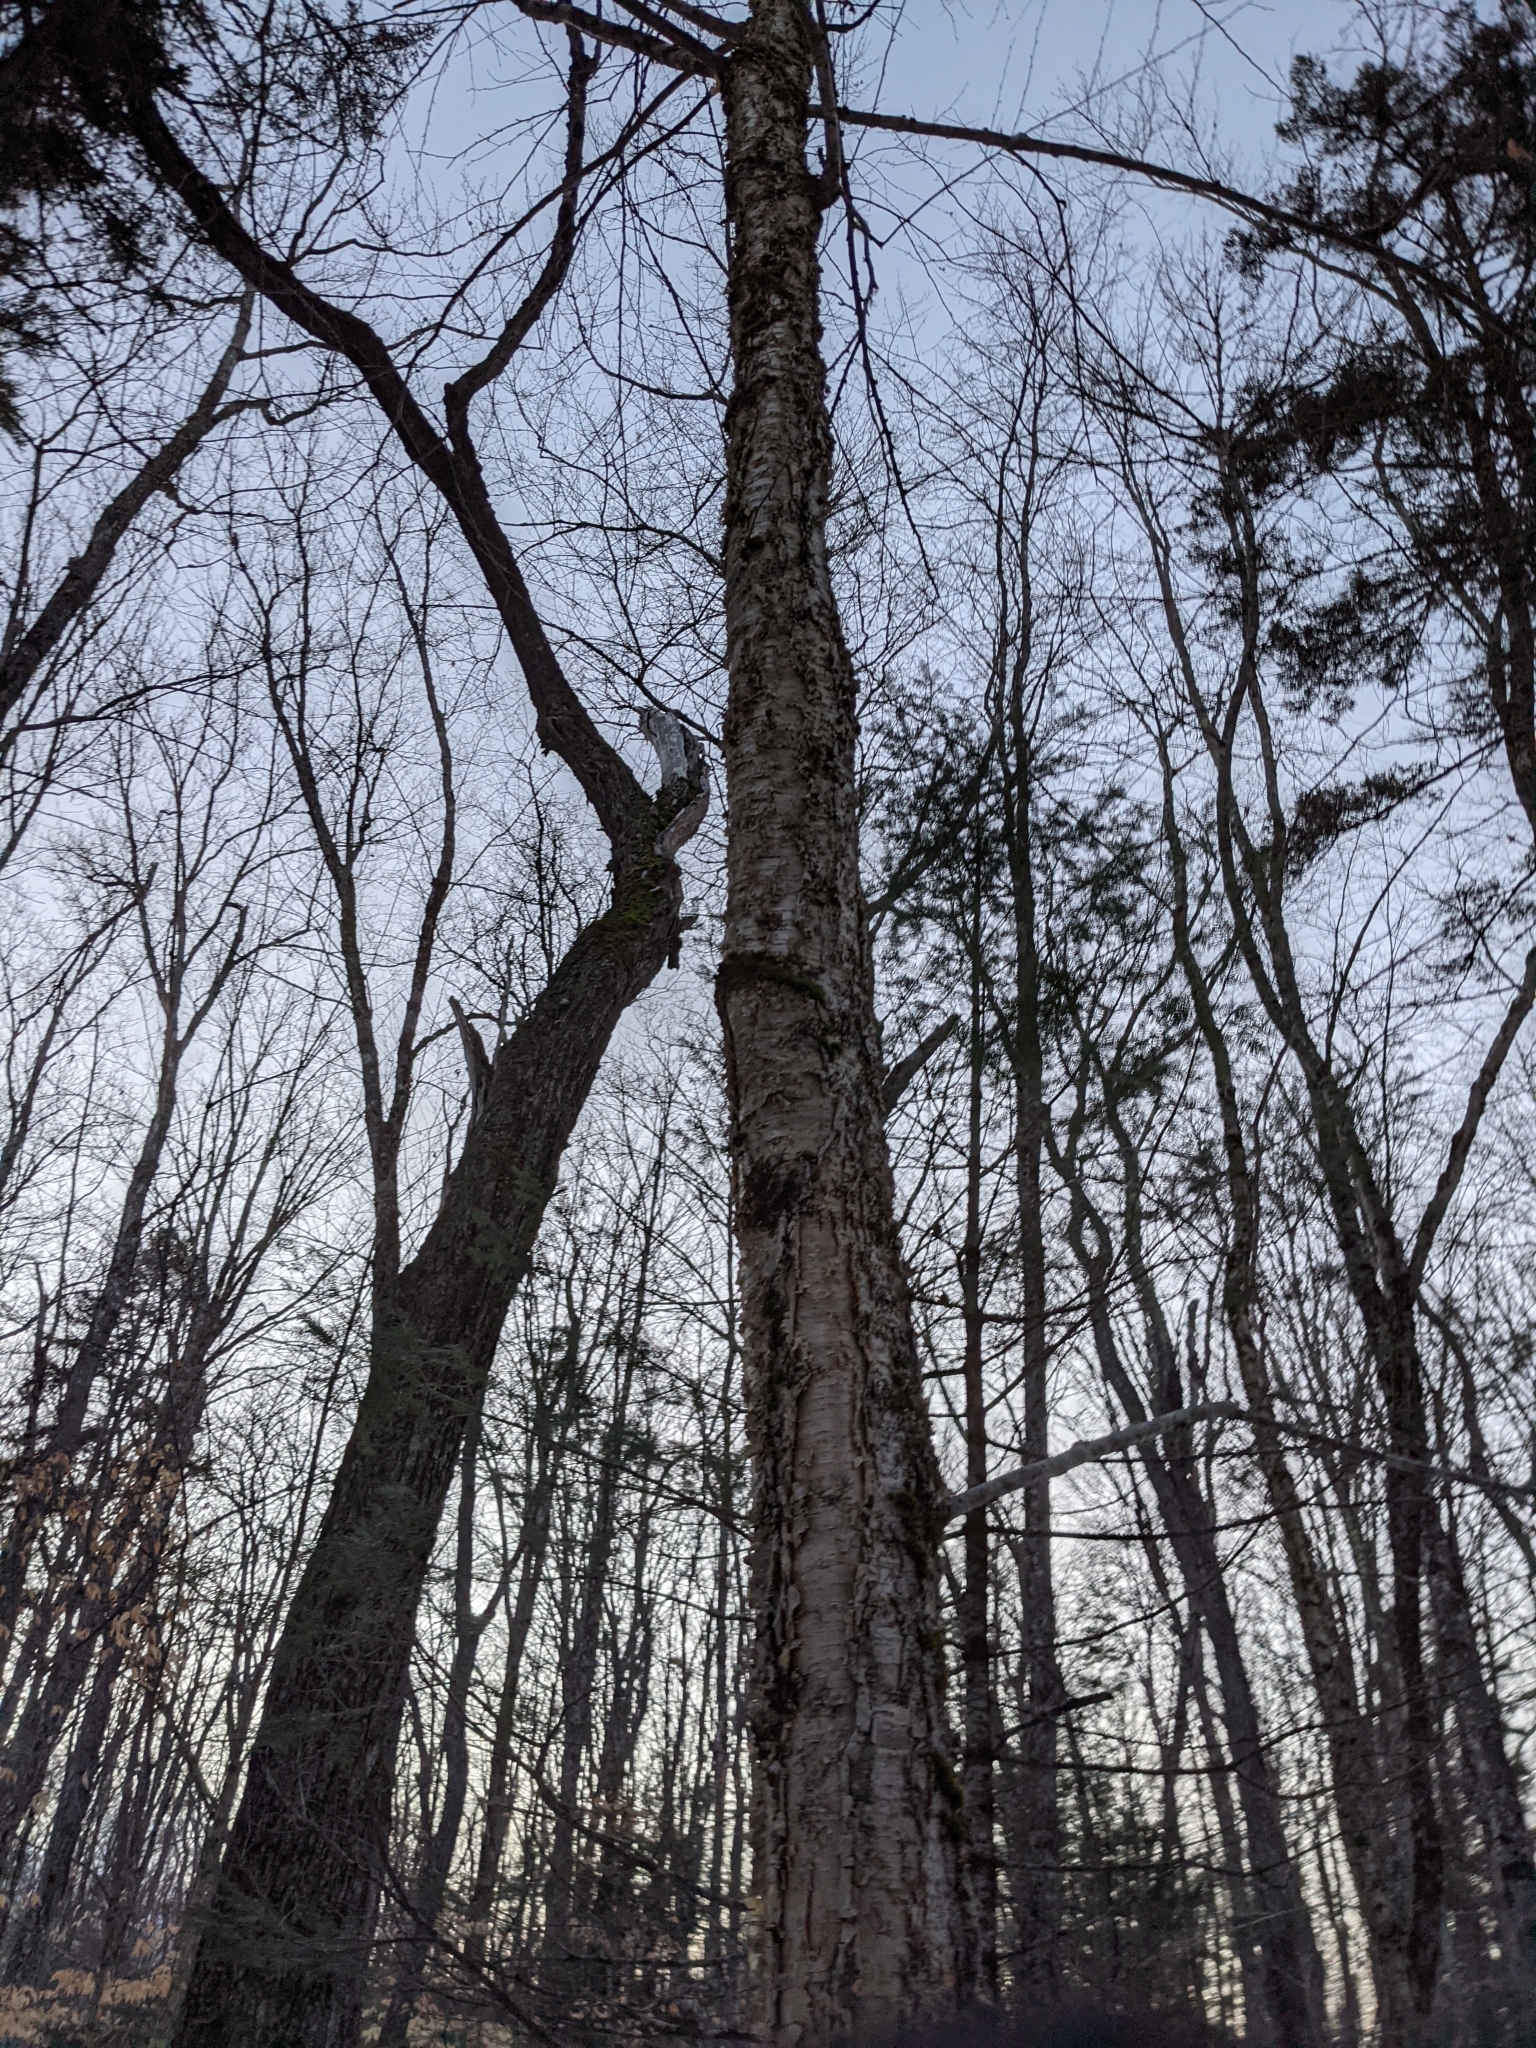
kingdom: Plantae
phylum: Tracheophyta
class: Magnoliopsida
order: Fagales
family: Betulaceae
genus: Betula
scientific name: Betula alleghaniensis
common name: Yellow birch
